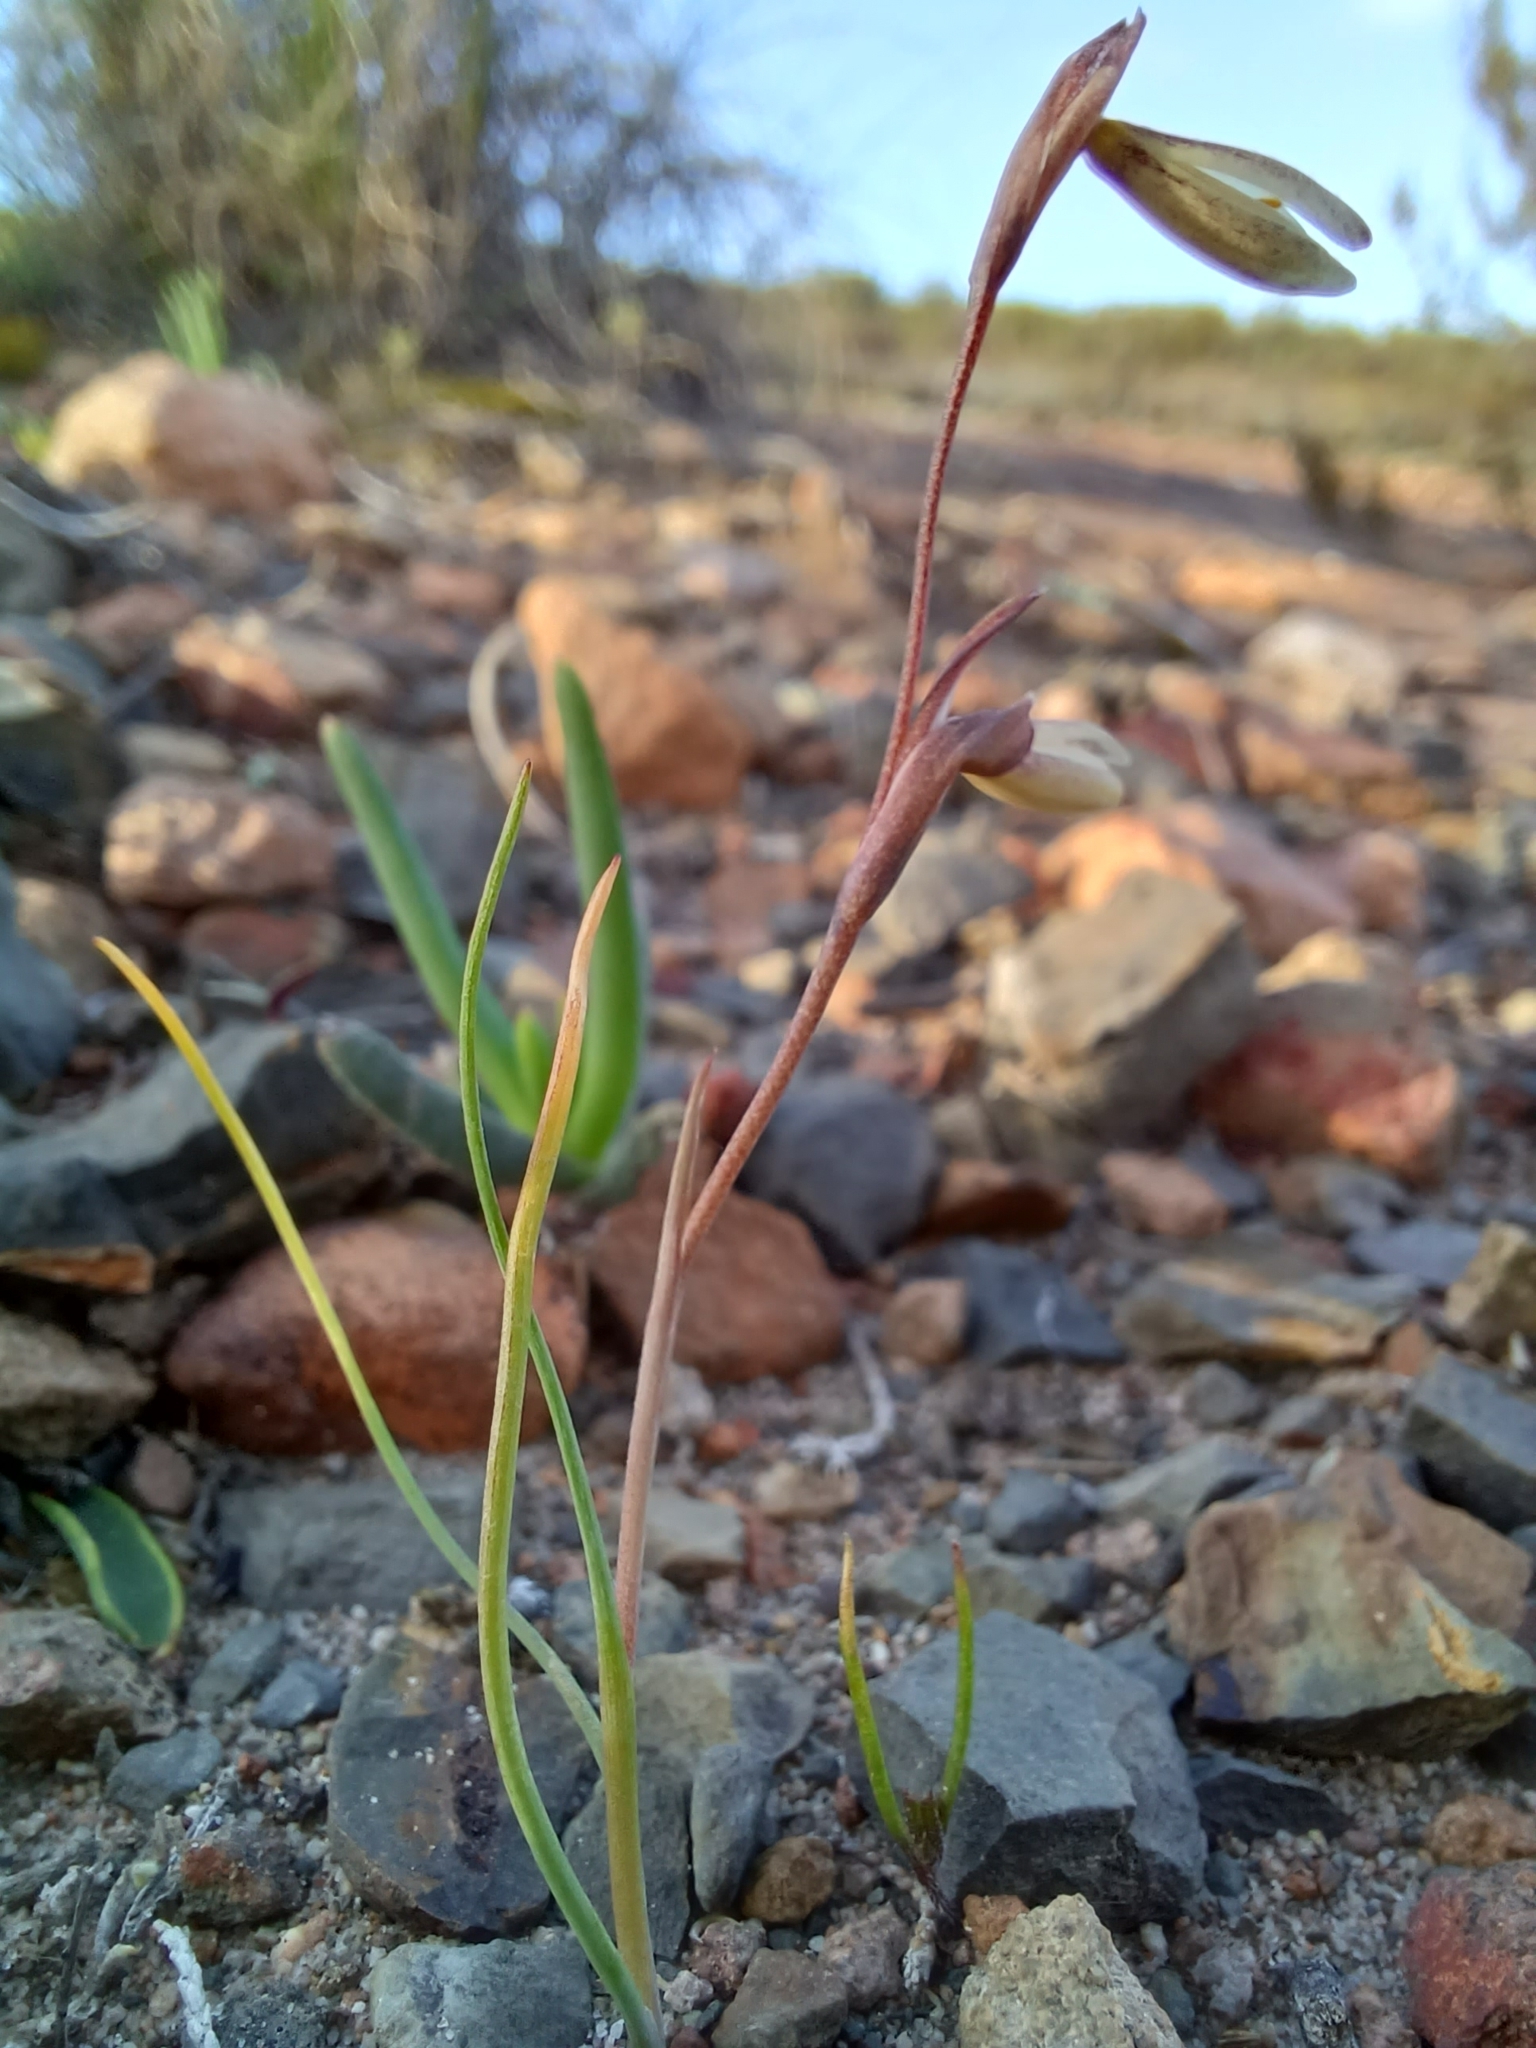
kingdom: Plantae
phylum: Tracheophyta
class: Liliopsida
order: Asparagales
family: Iridaceae
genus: Hesperantha
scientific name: Hesperantha radiata
